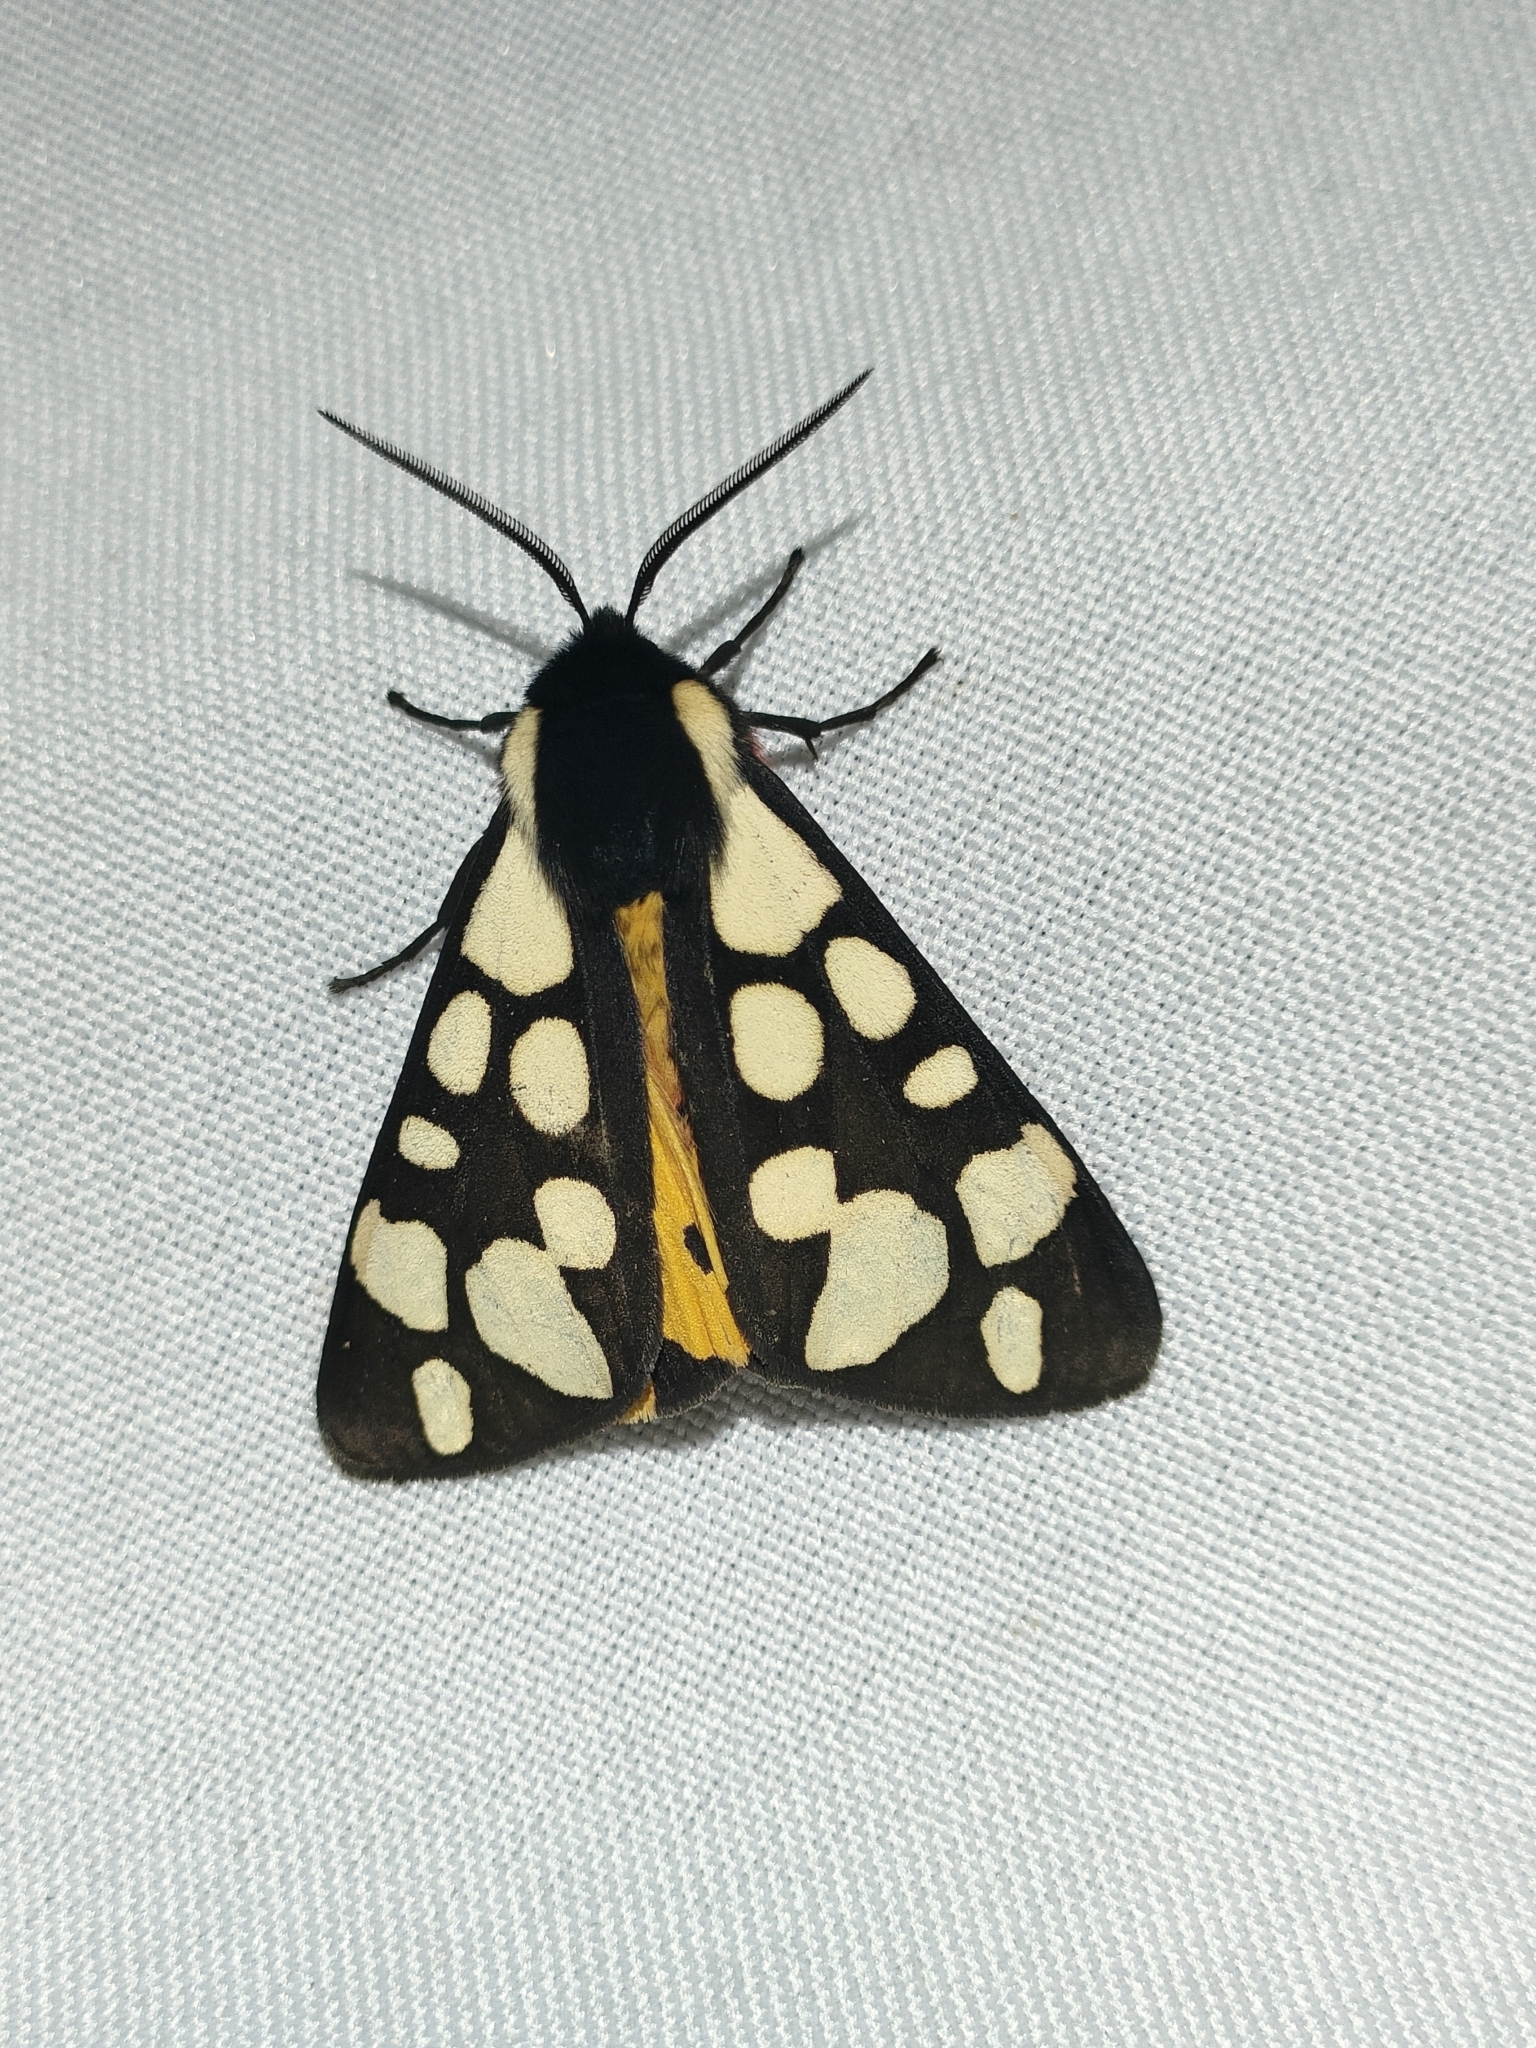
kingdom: Animalia
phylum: Arthropoda
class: Insecta
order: Lepidoptera
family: Erebidae
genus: Epicallia
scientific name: Epicallia villica
